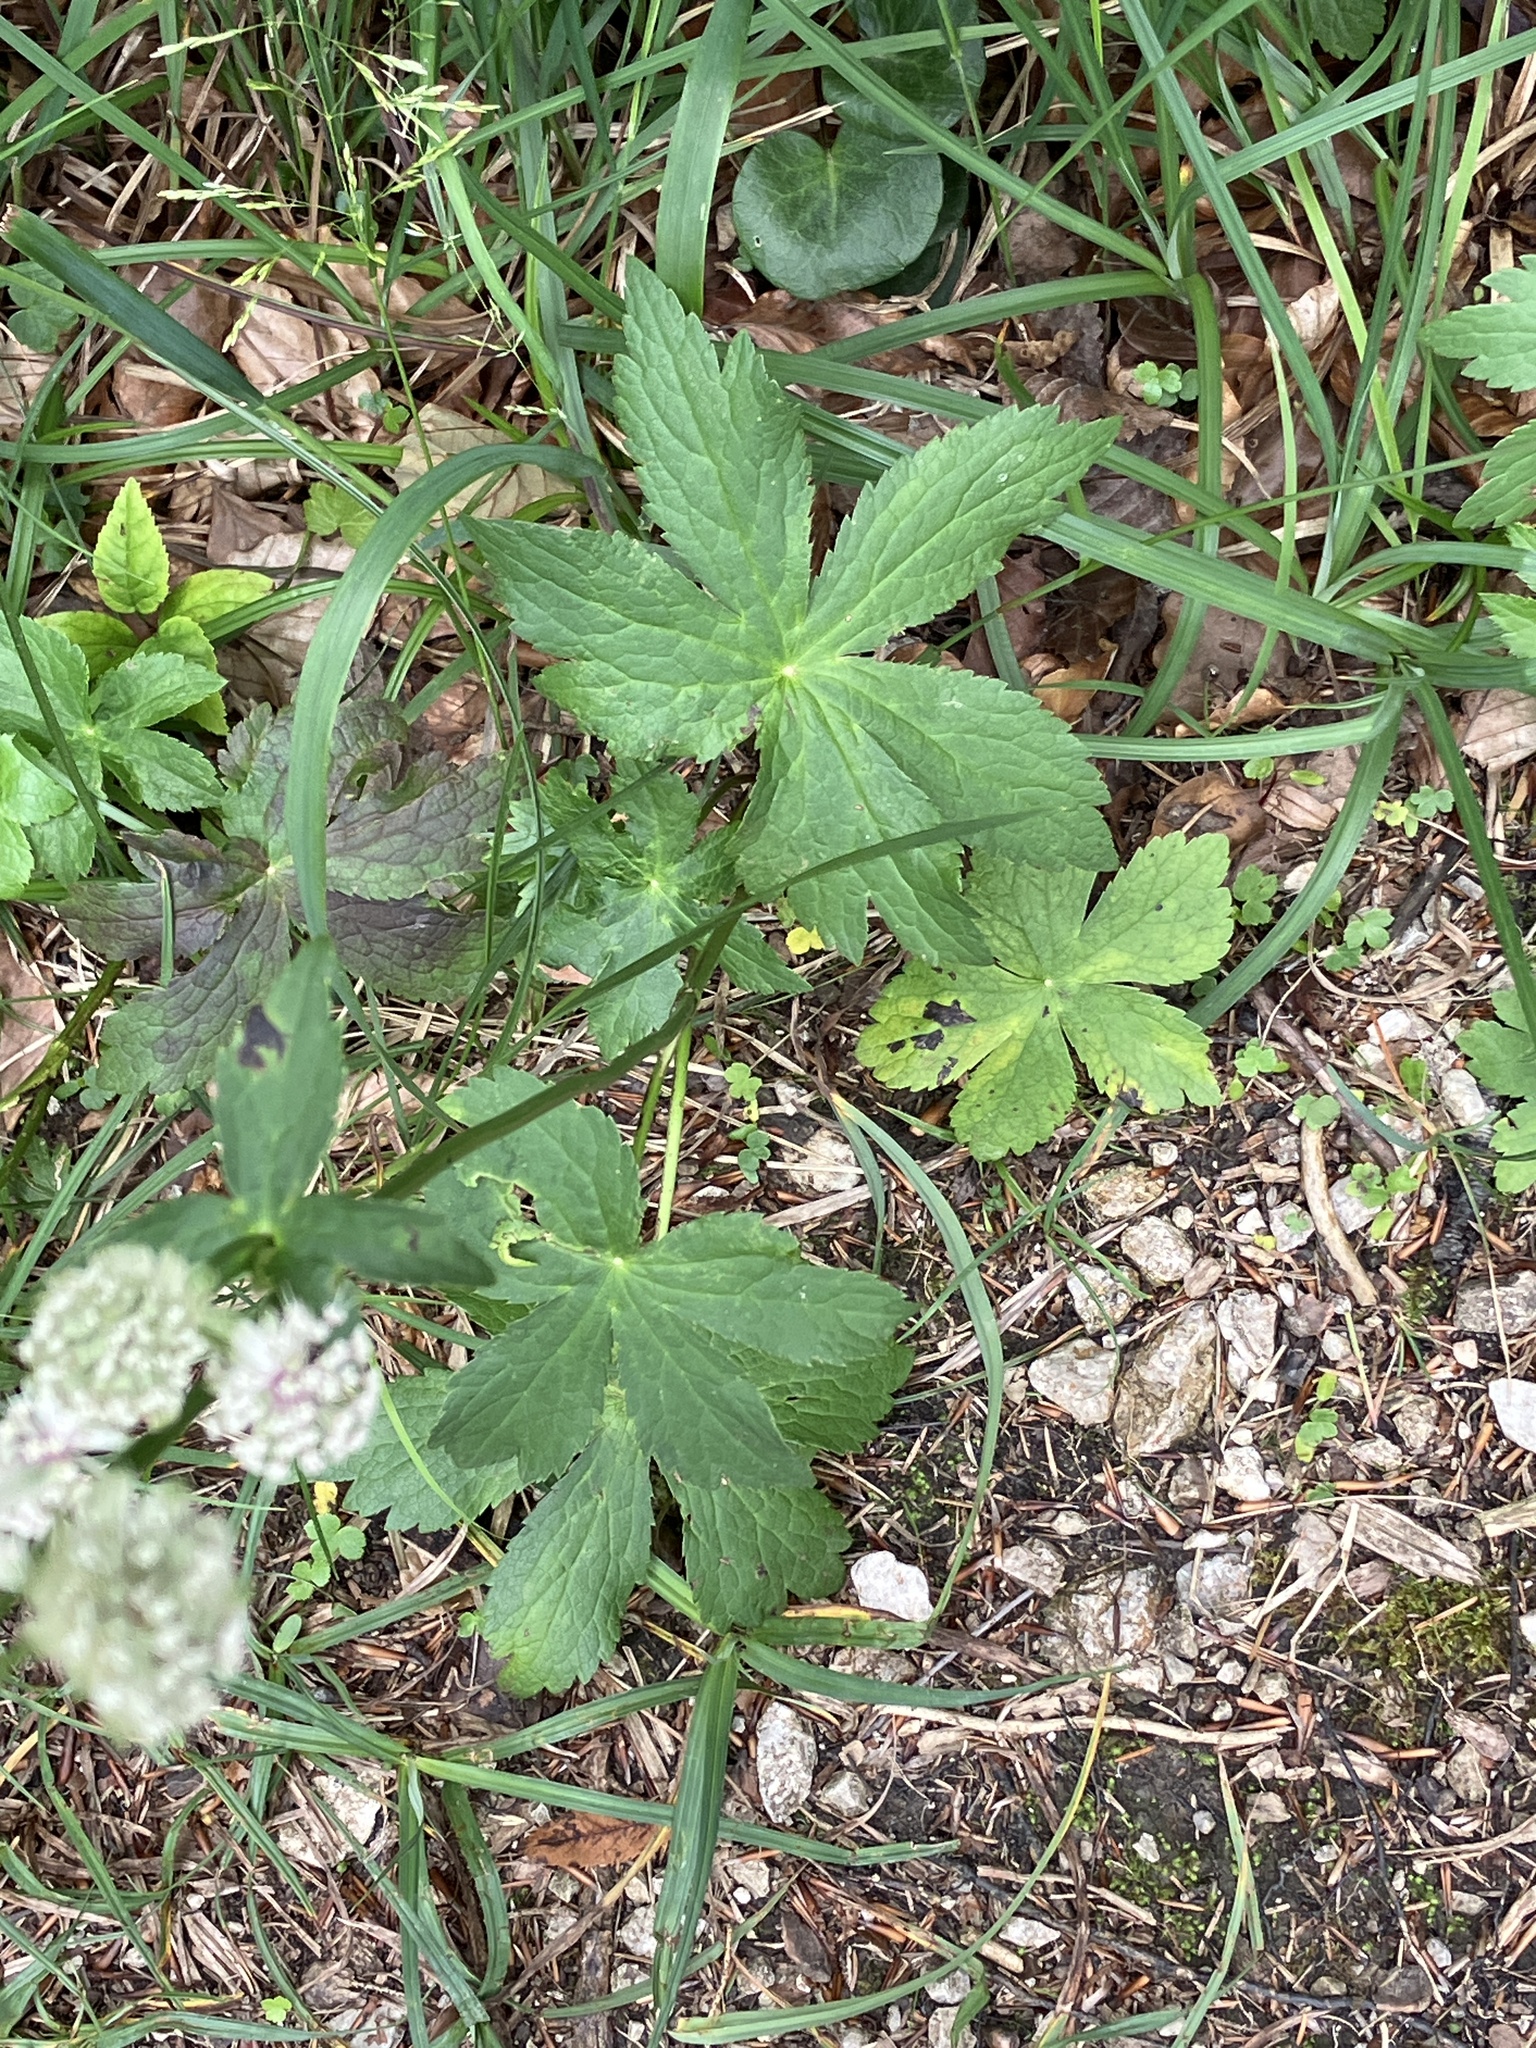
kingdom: Plantae
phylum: Tracheophyta
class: Magnoliopsida
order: Apiales
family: Apiaceae
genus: Astrantia
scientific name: Astrantia major
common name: Greater masterwort
